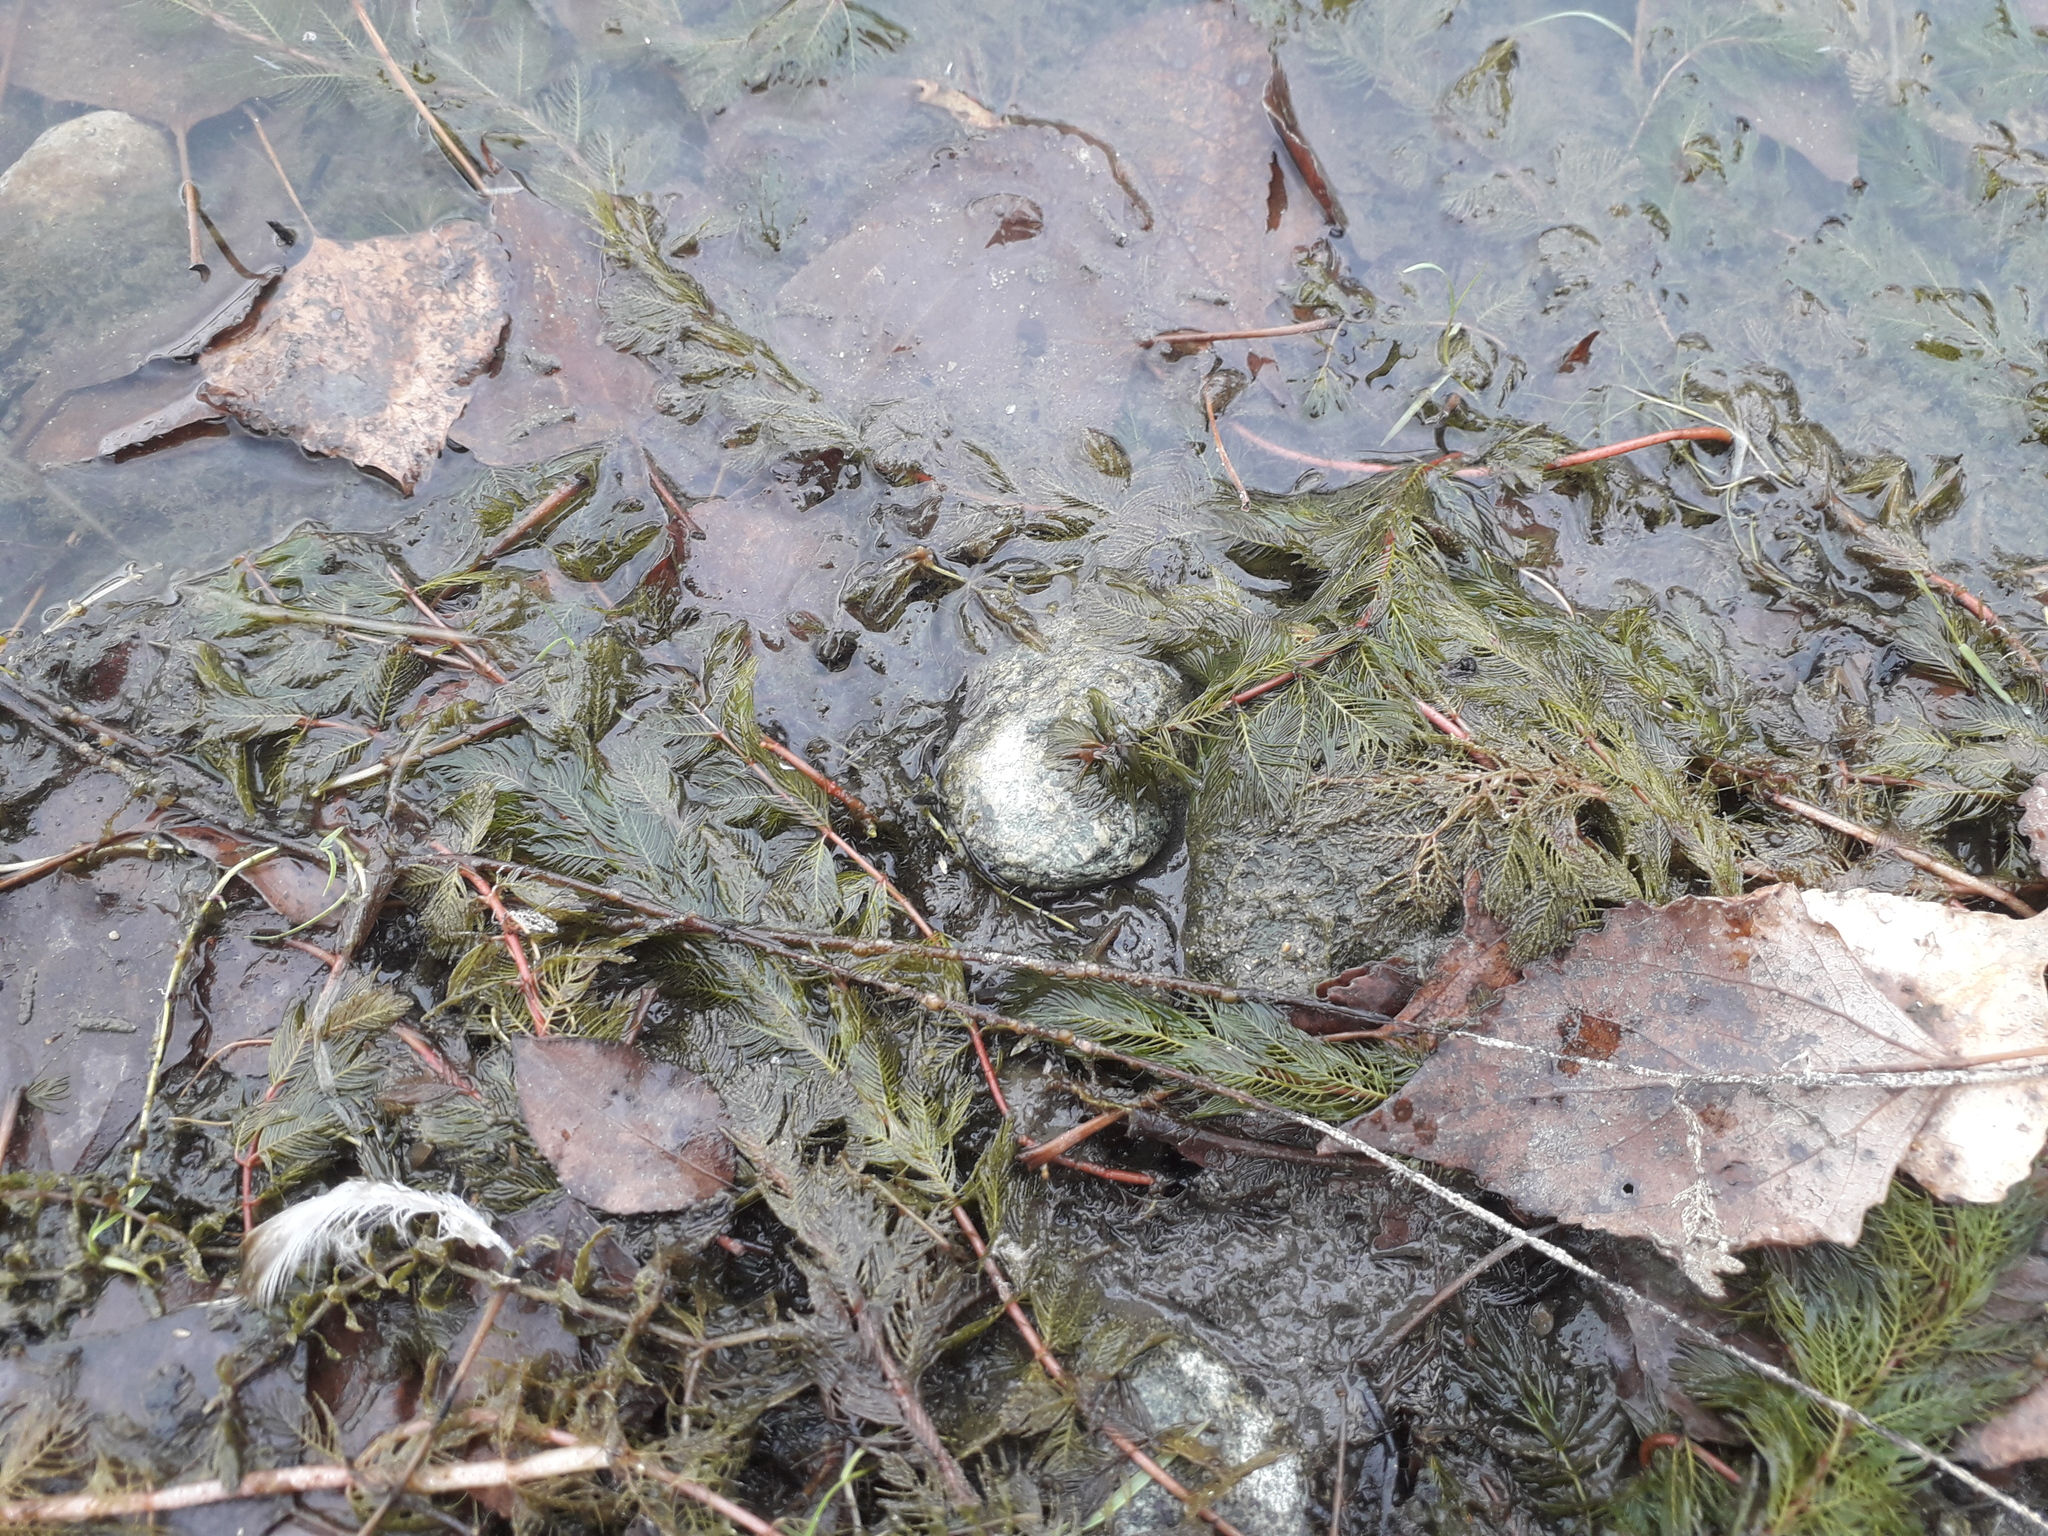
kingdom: Plantae
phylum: Tracheophyta
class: Magnoliopsida
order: Saxifragales
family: Haloragaceae
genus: Myriophyllum
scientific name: Myriophyllum spicatum
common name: Spiked water-milfoil
